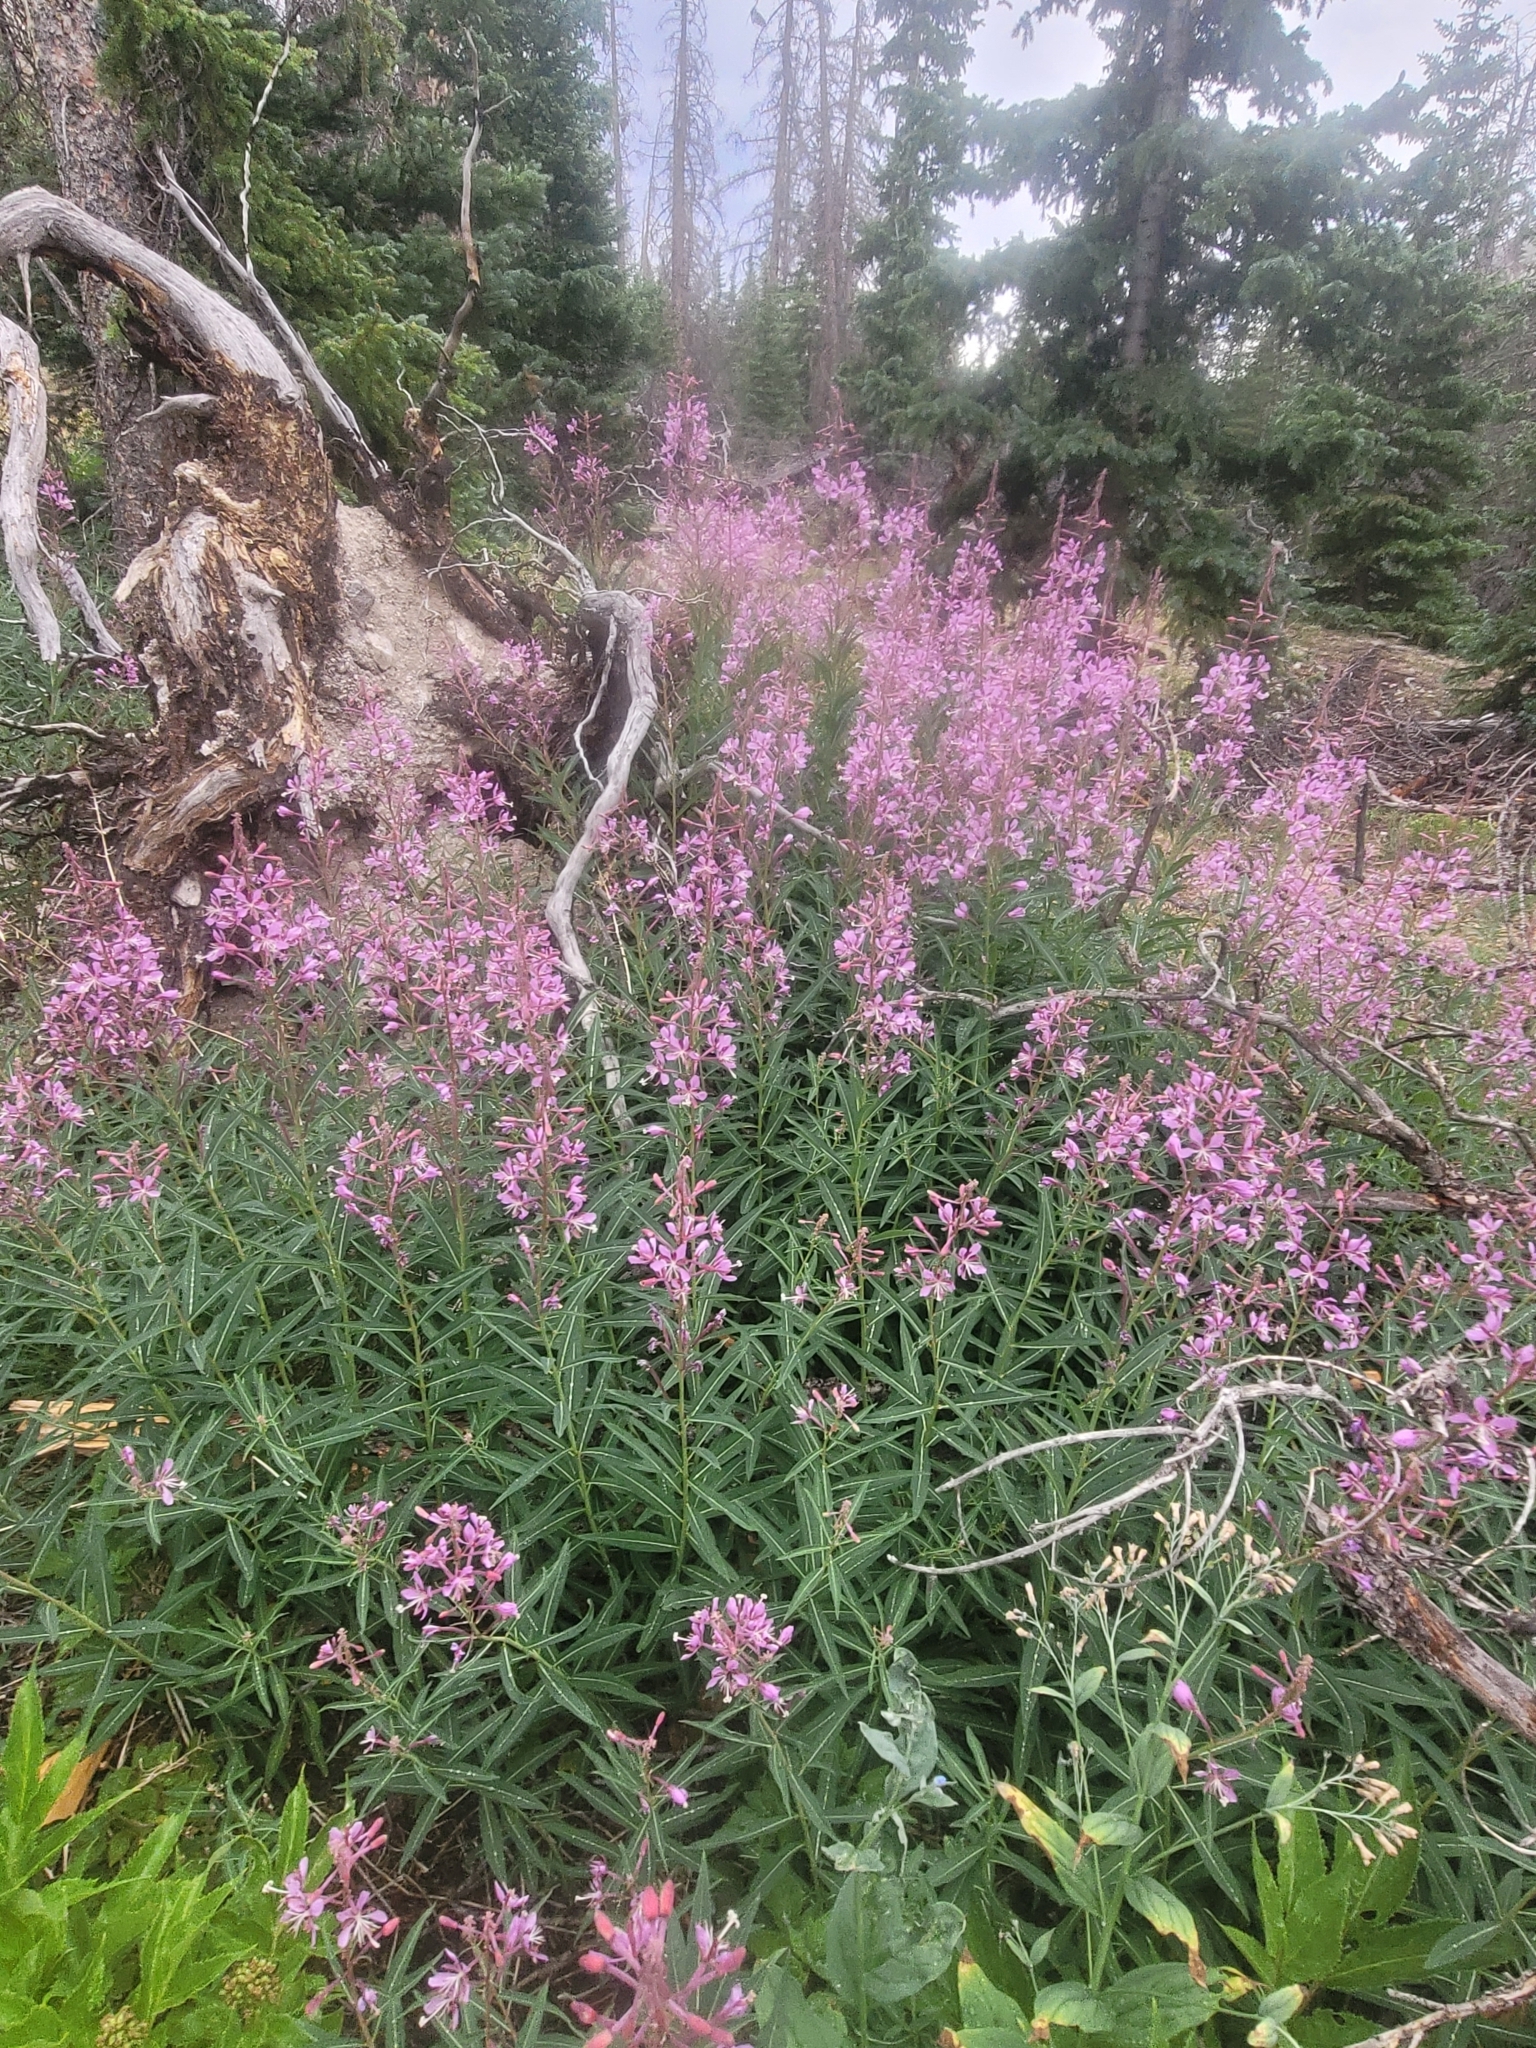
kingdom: Plantae
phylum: Tracheophyta
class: Magnoliopsida
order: Myrtales
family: Onagraceae
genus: Chamaenerion
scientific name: Chamaenerion angustifolium
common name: Fireweed
